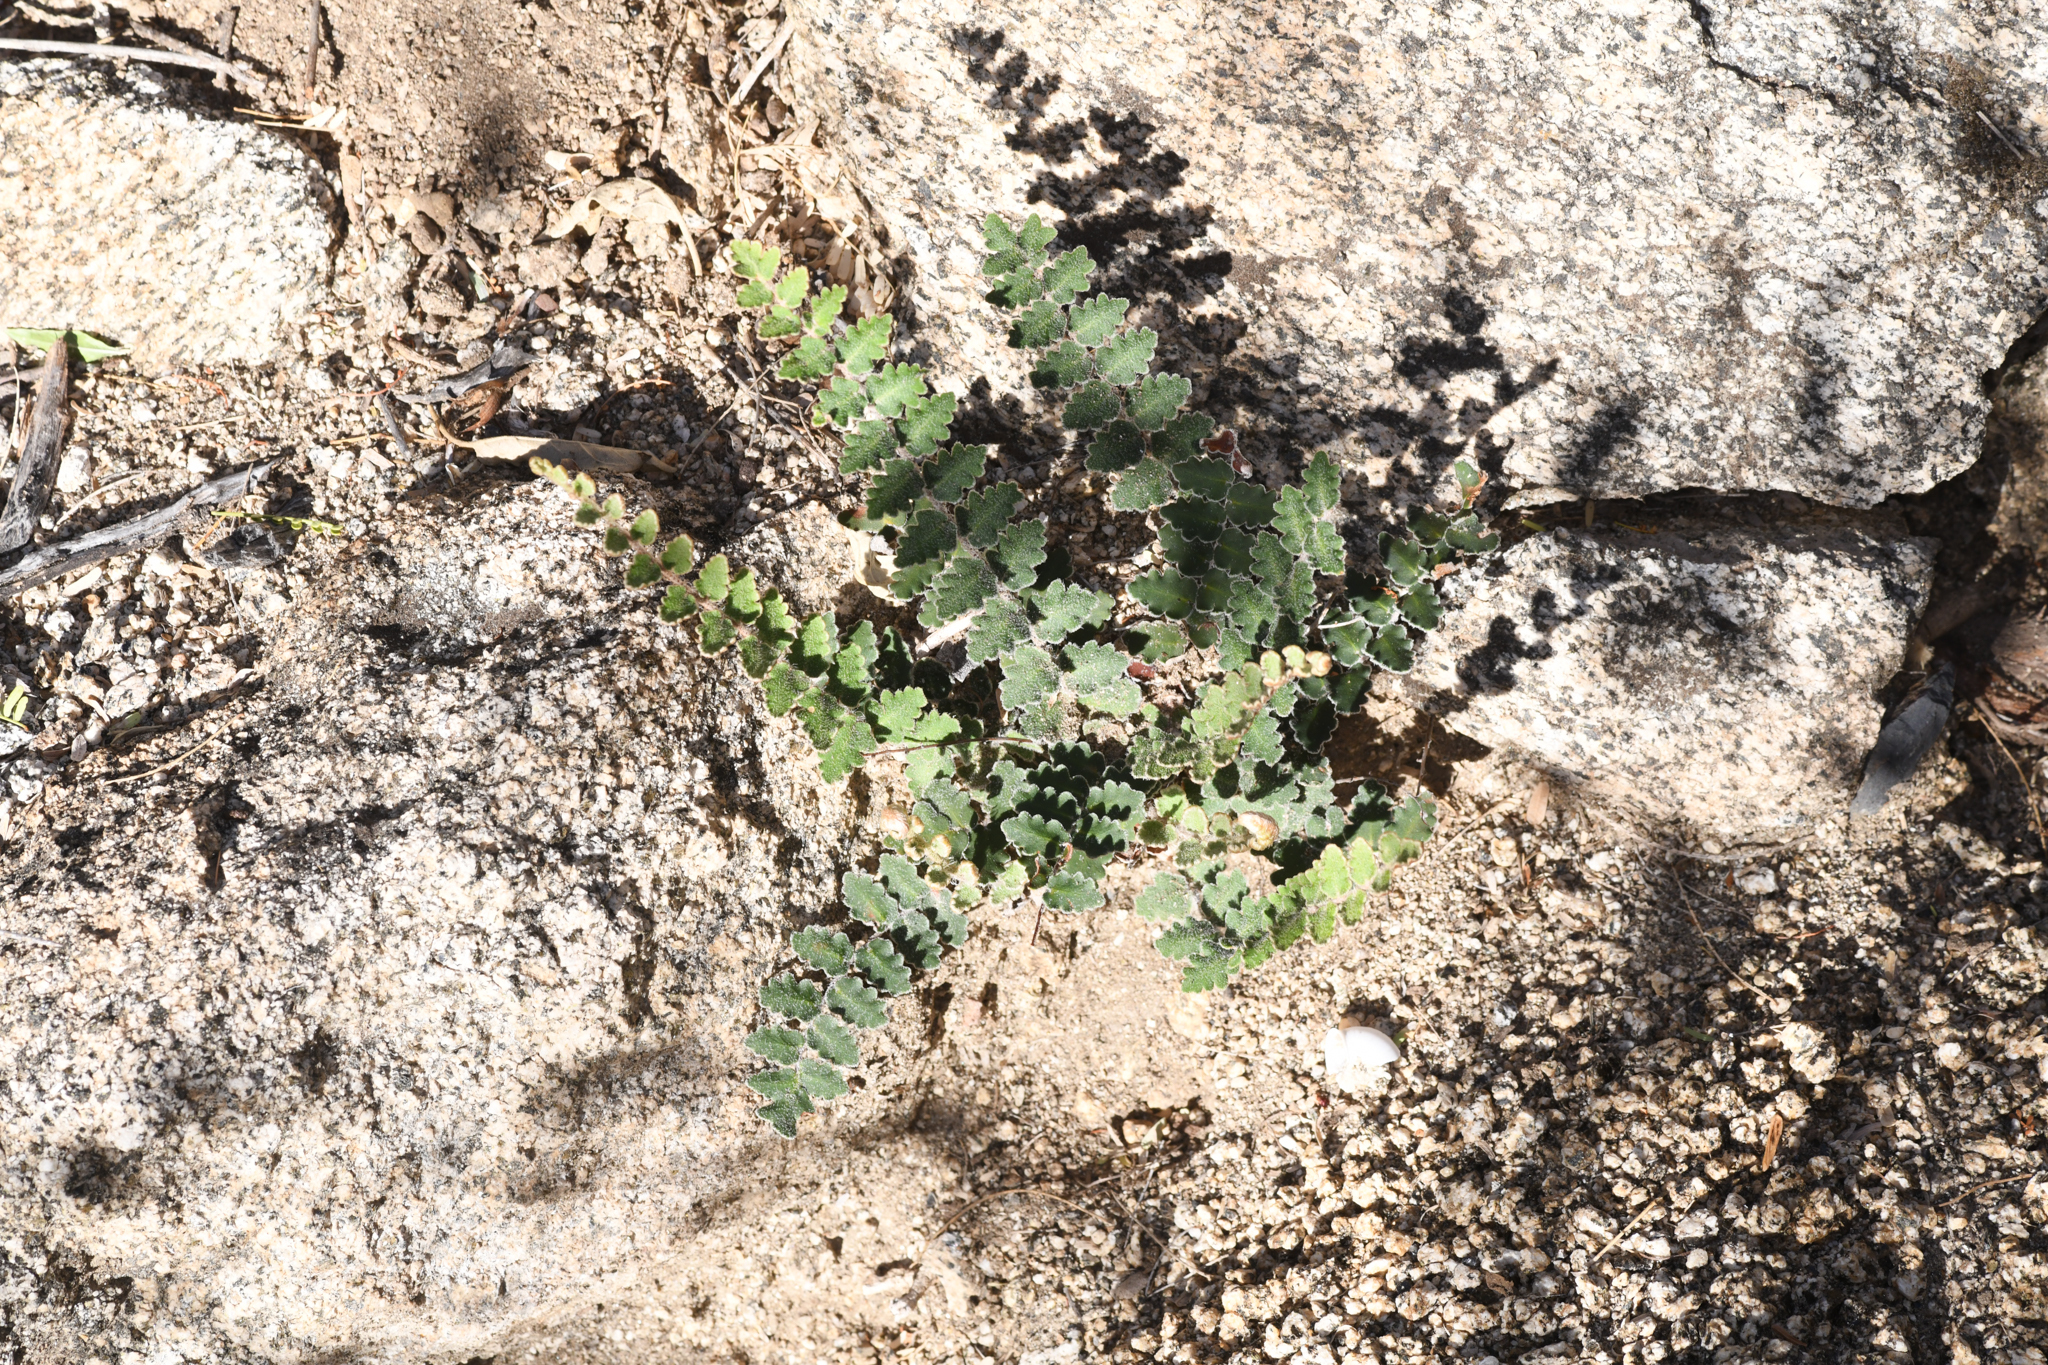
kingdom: Plantae
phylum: Tracheophyta
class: Polypodiopsida
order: Polypodiales
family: Pteridaceae
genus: Astrolepis
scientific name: Astrolepis sinuata
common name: Wavy scaly cloakfern
